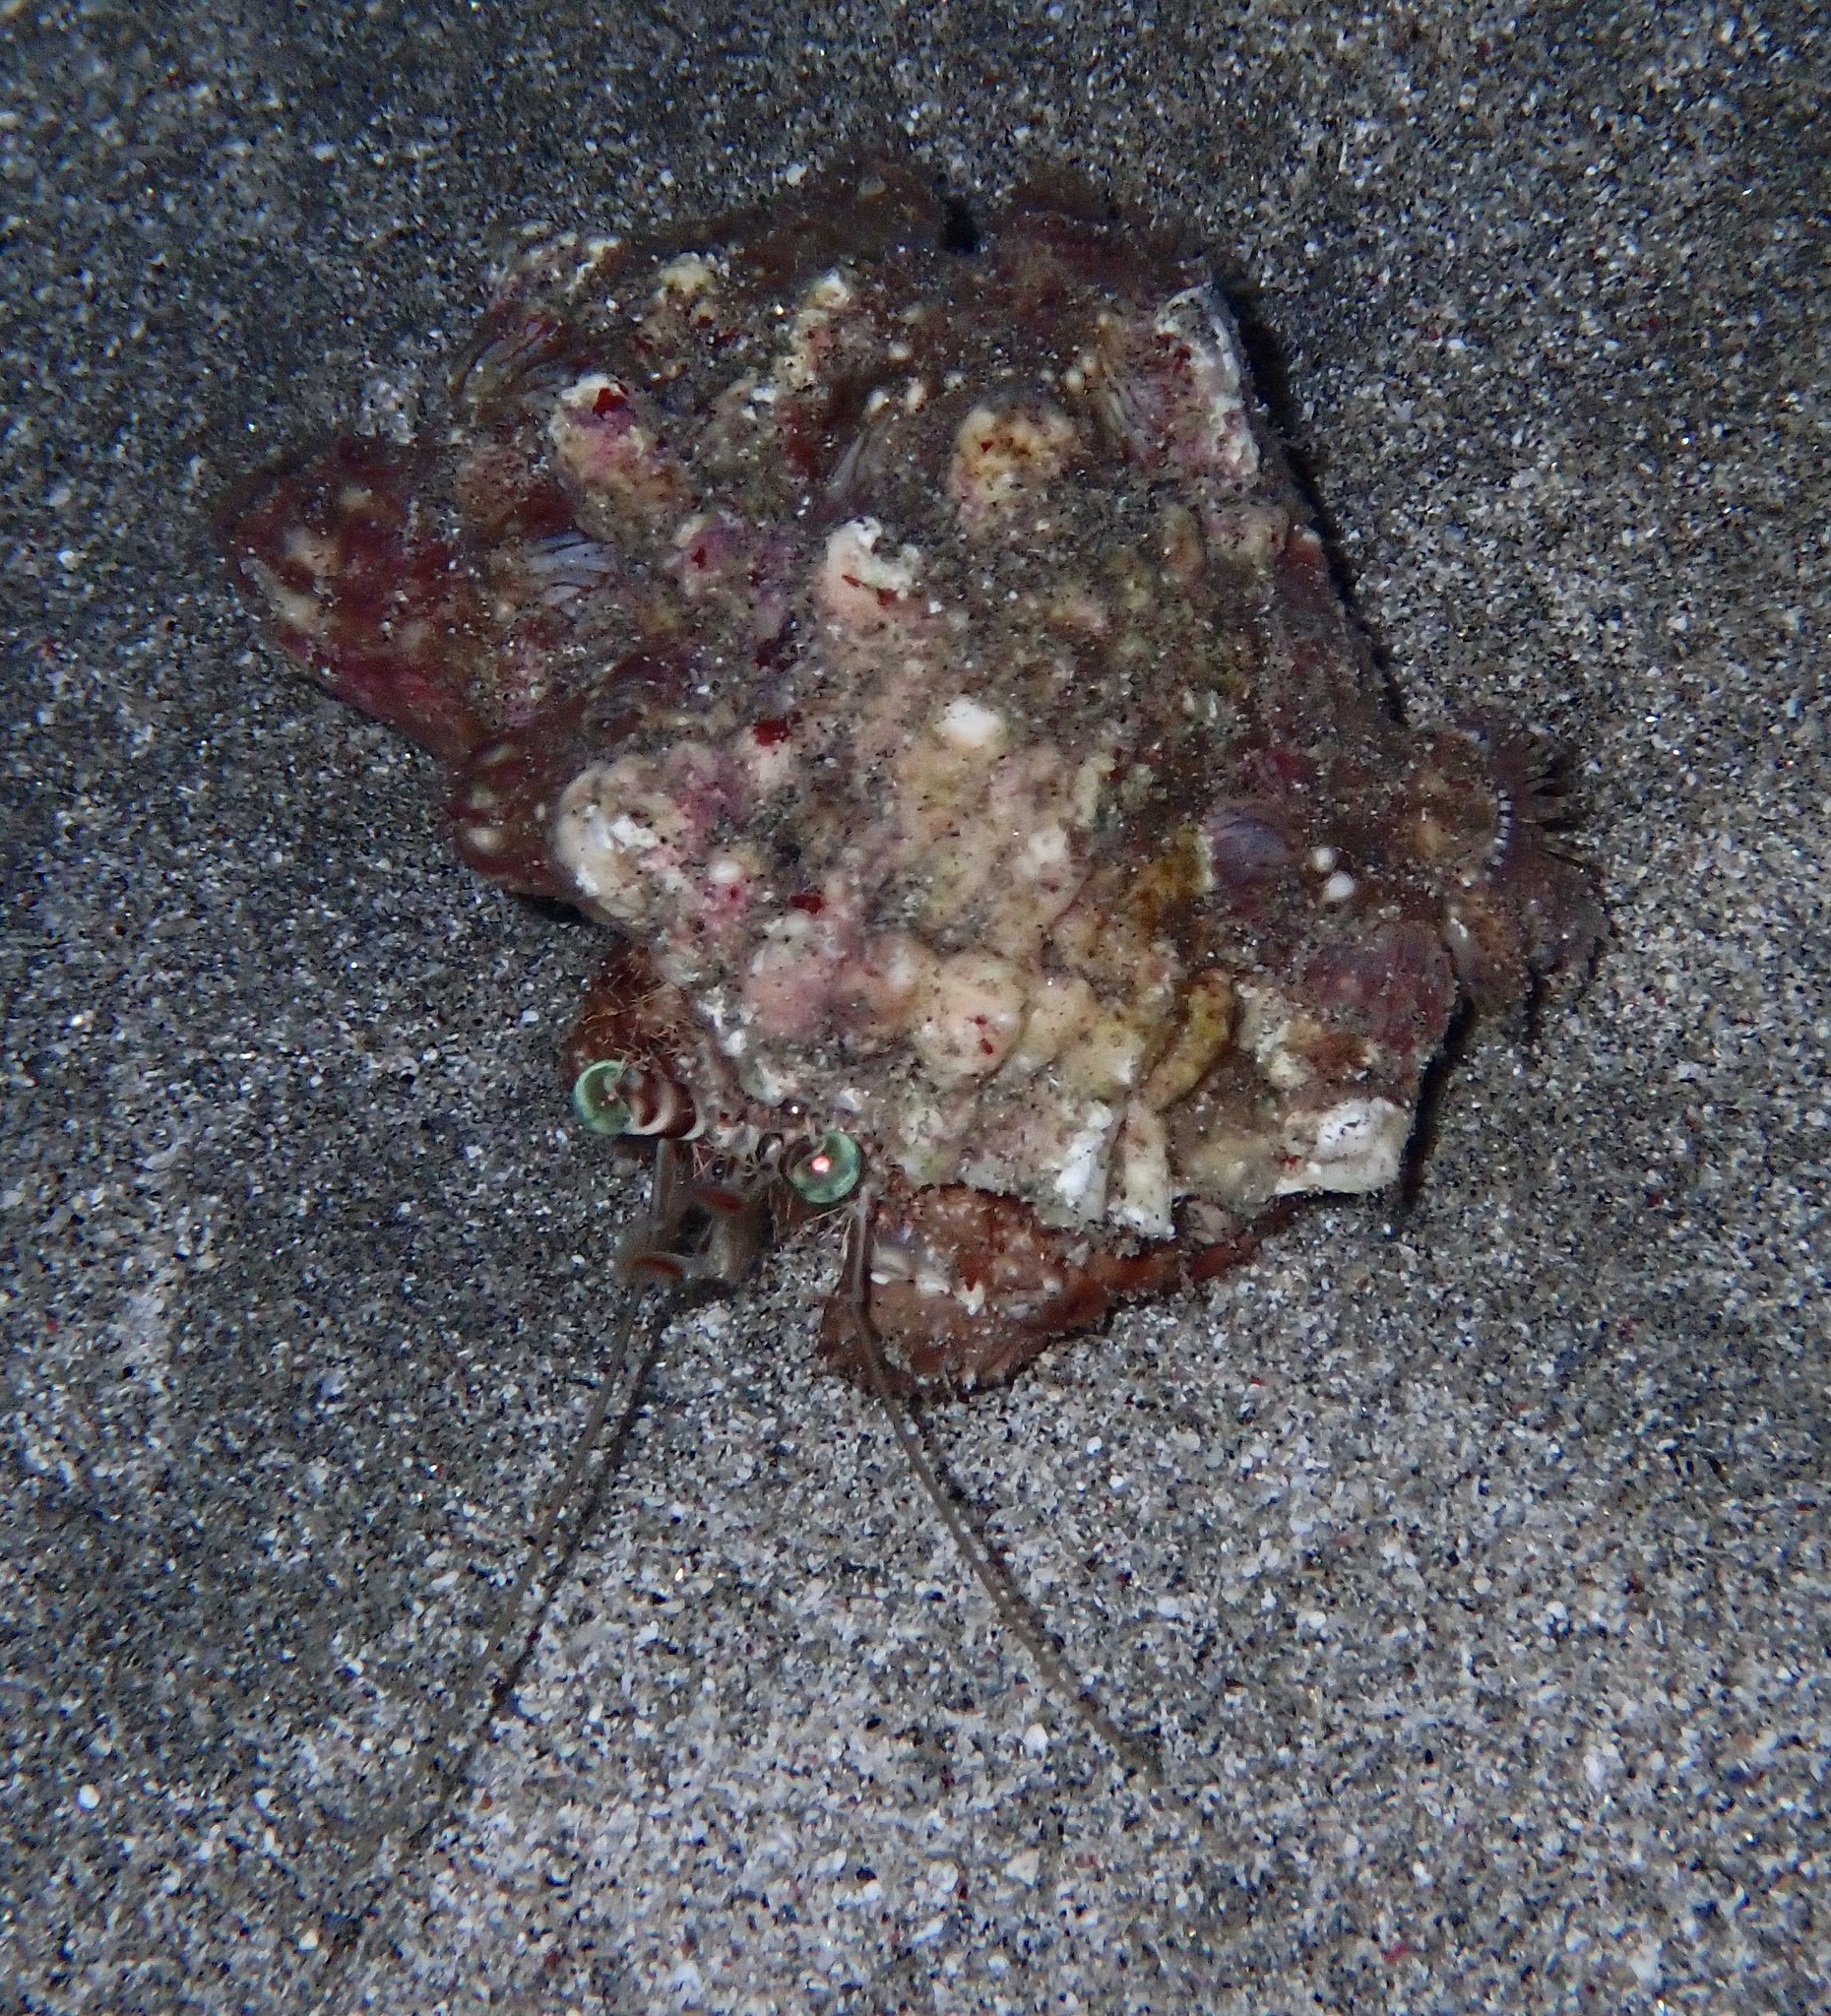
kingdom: Animalia
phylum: Arthropoda
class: Malacostraca
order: Decapoda
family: Diogenidae
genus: Dardanus
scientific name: Dardanus tinctor
